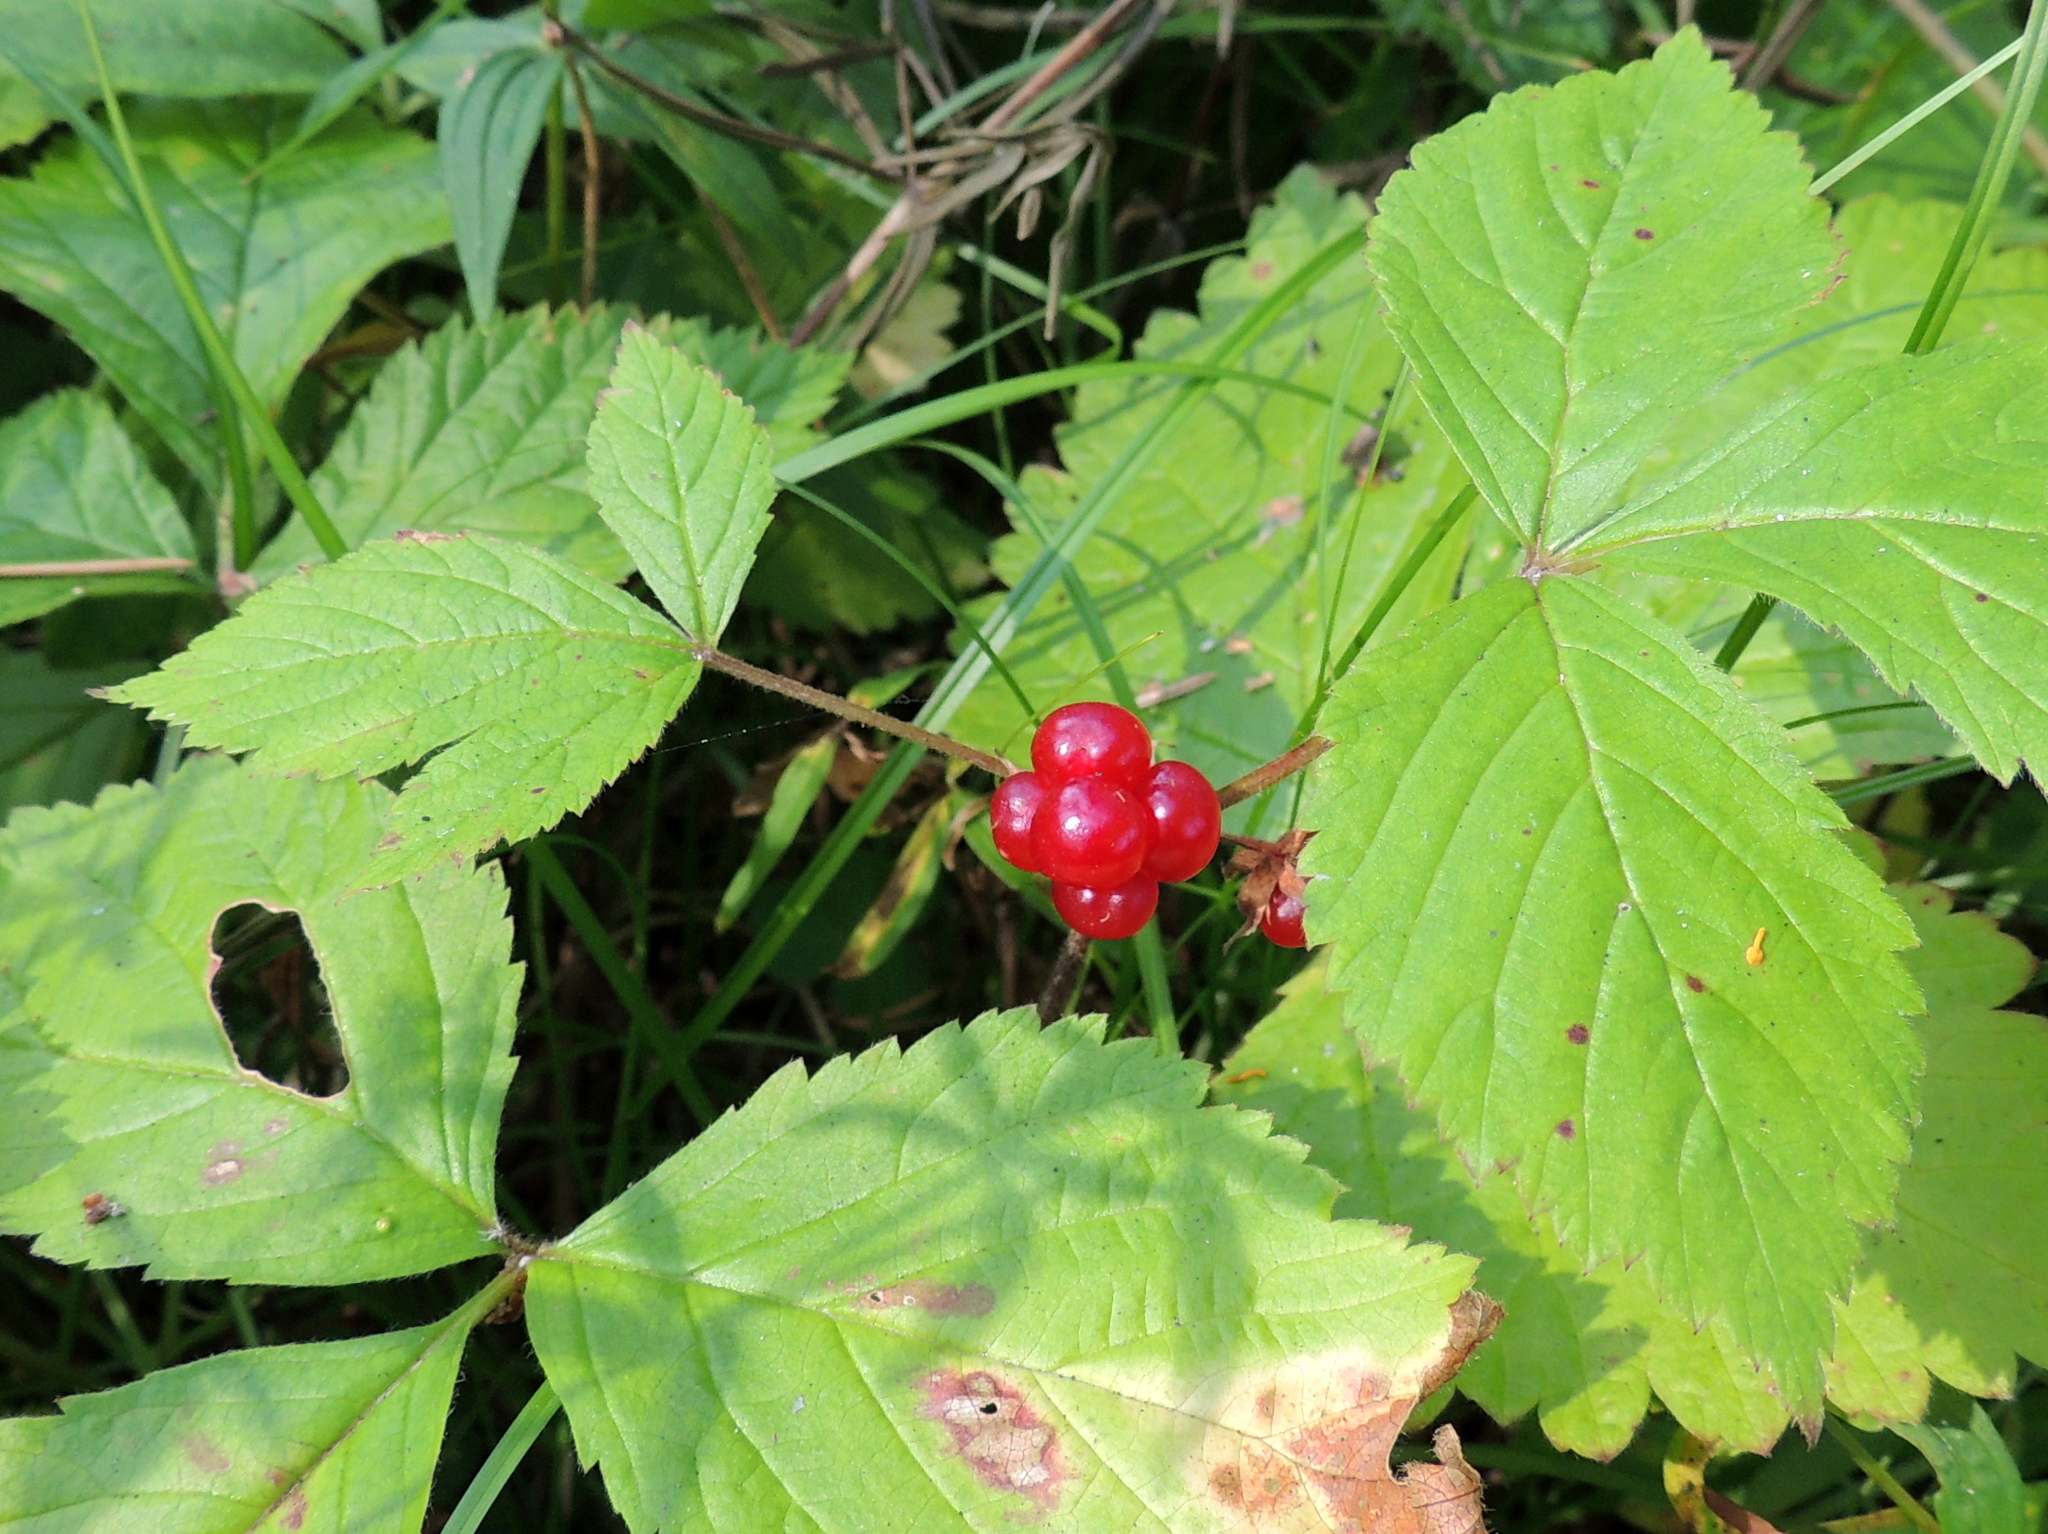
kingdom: Plantae
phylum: Tracheophyta
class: Magnoliopsida
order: Rosales
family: Rosaceae
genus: Rubus
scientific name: Rubus saxatilis
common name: Stone bramble
